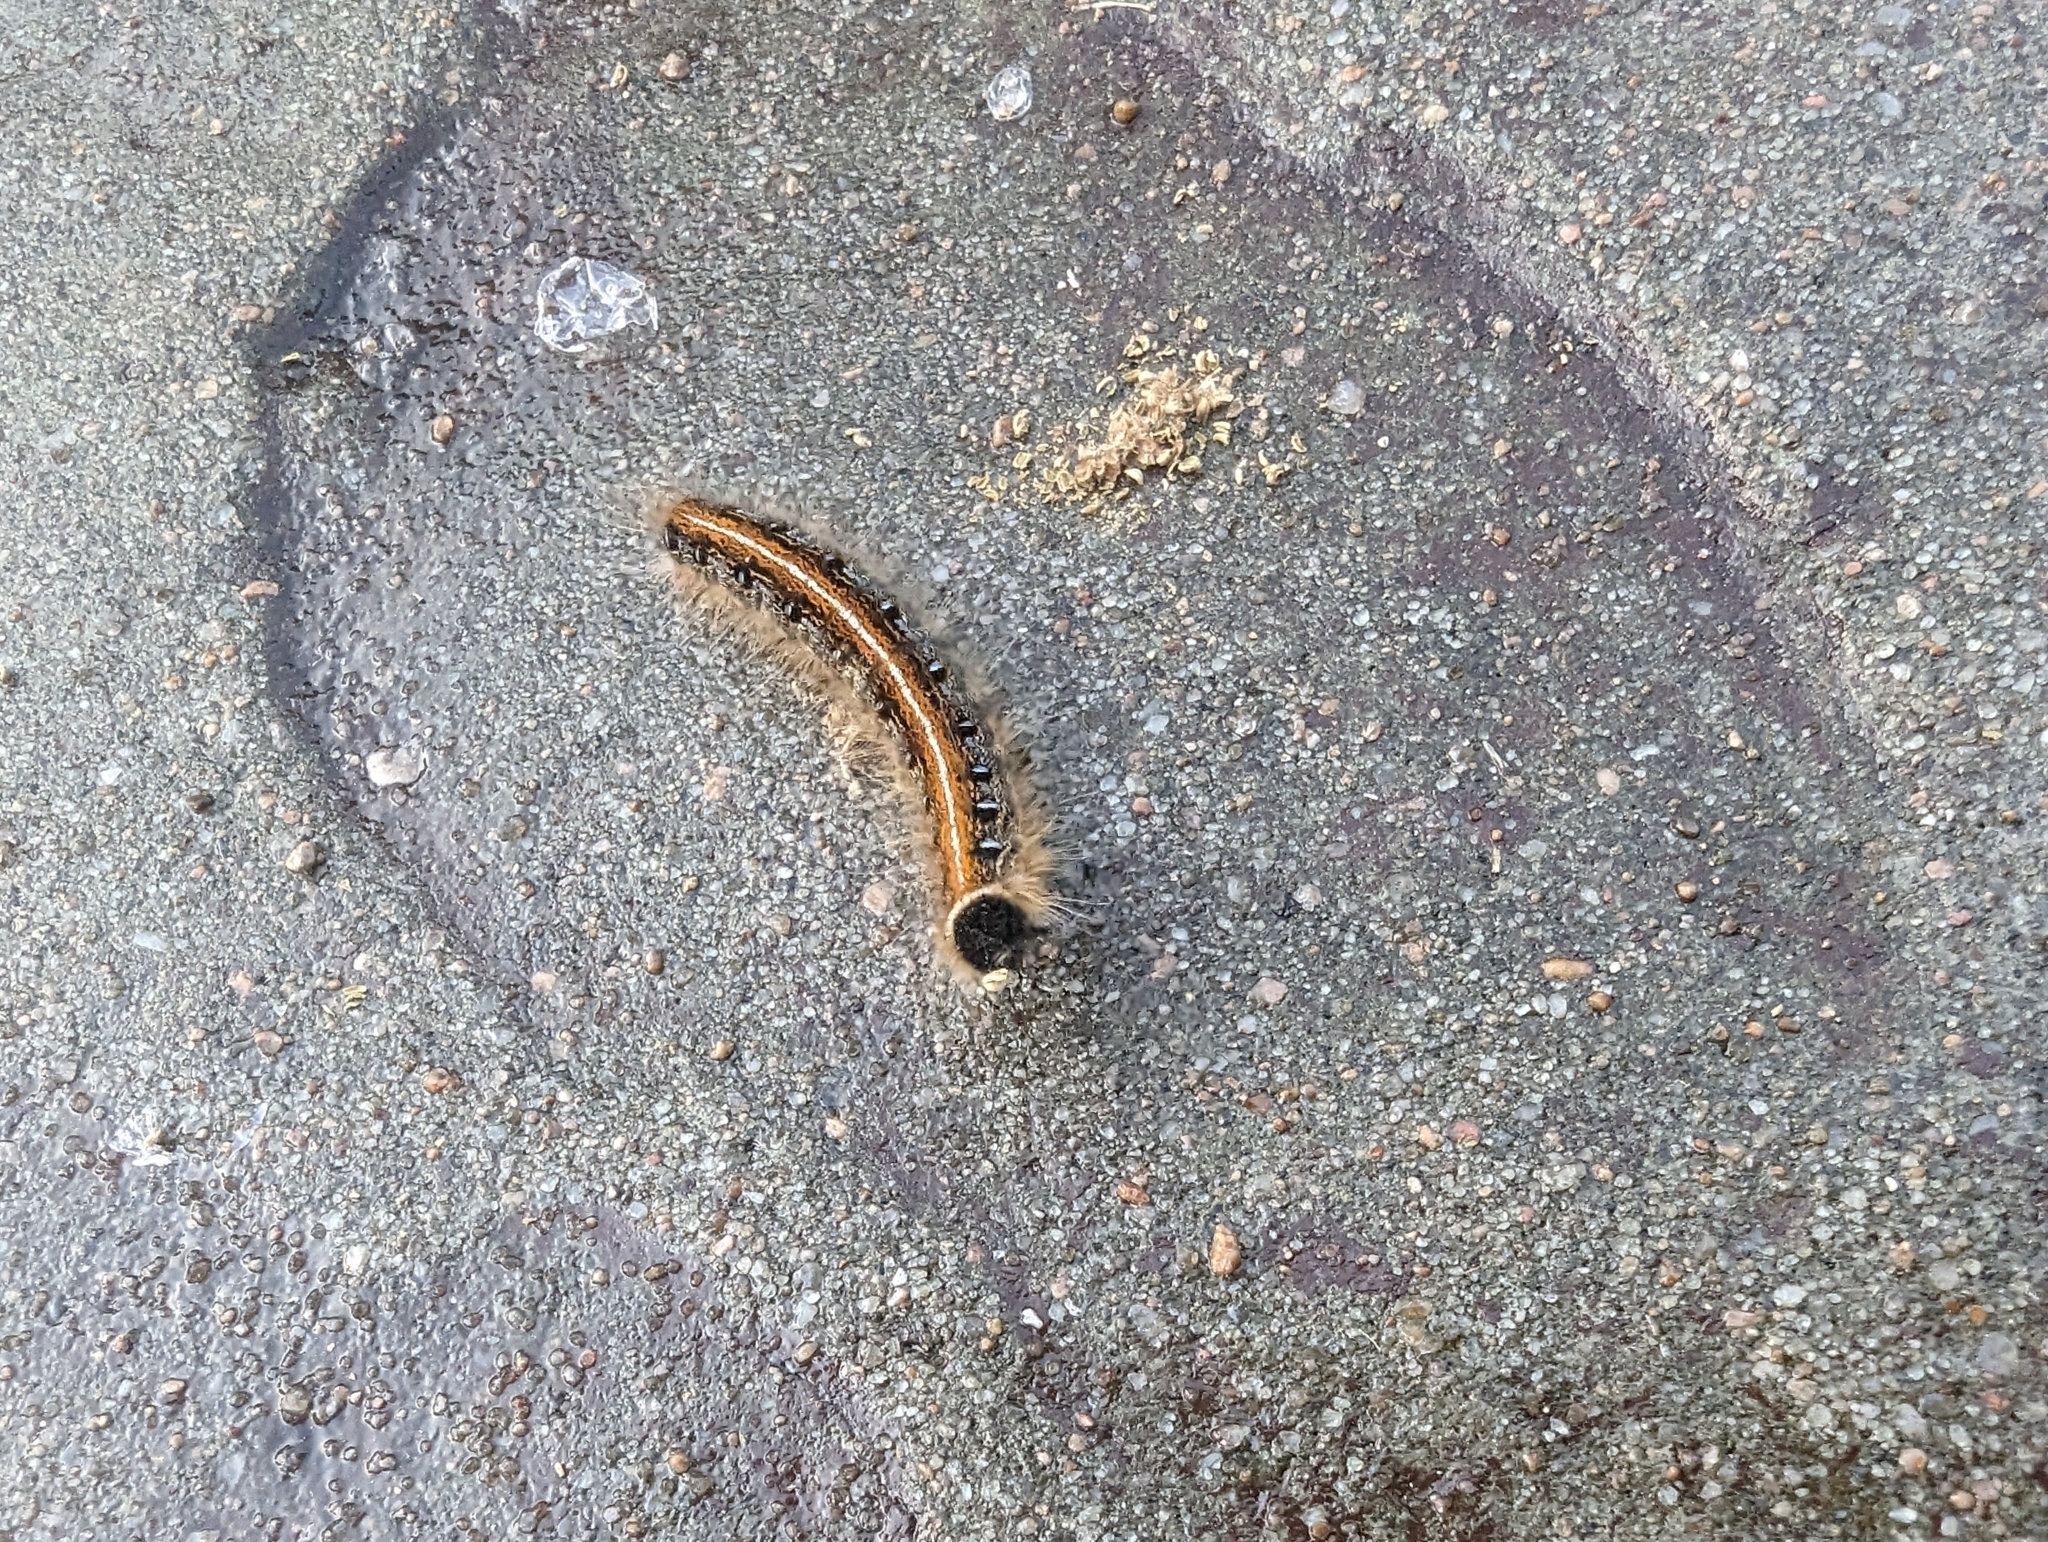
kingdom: Animalia
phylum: Arthropoda
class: Insecta
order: Lepidoptera
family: Lasiocampidae
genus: Malacosoma
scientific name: Malacosoma americana
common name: Eastern tent caterpillar moth
